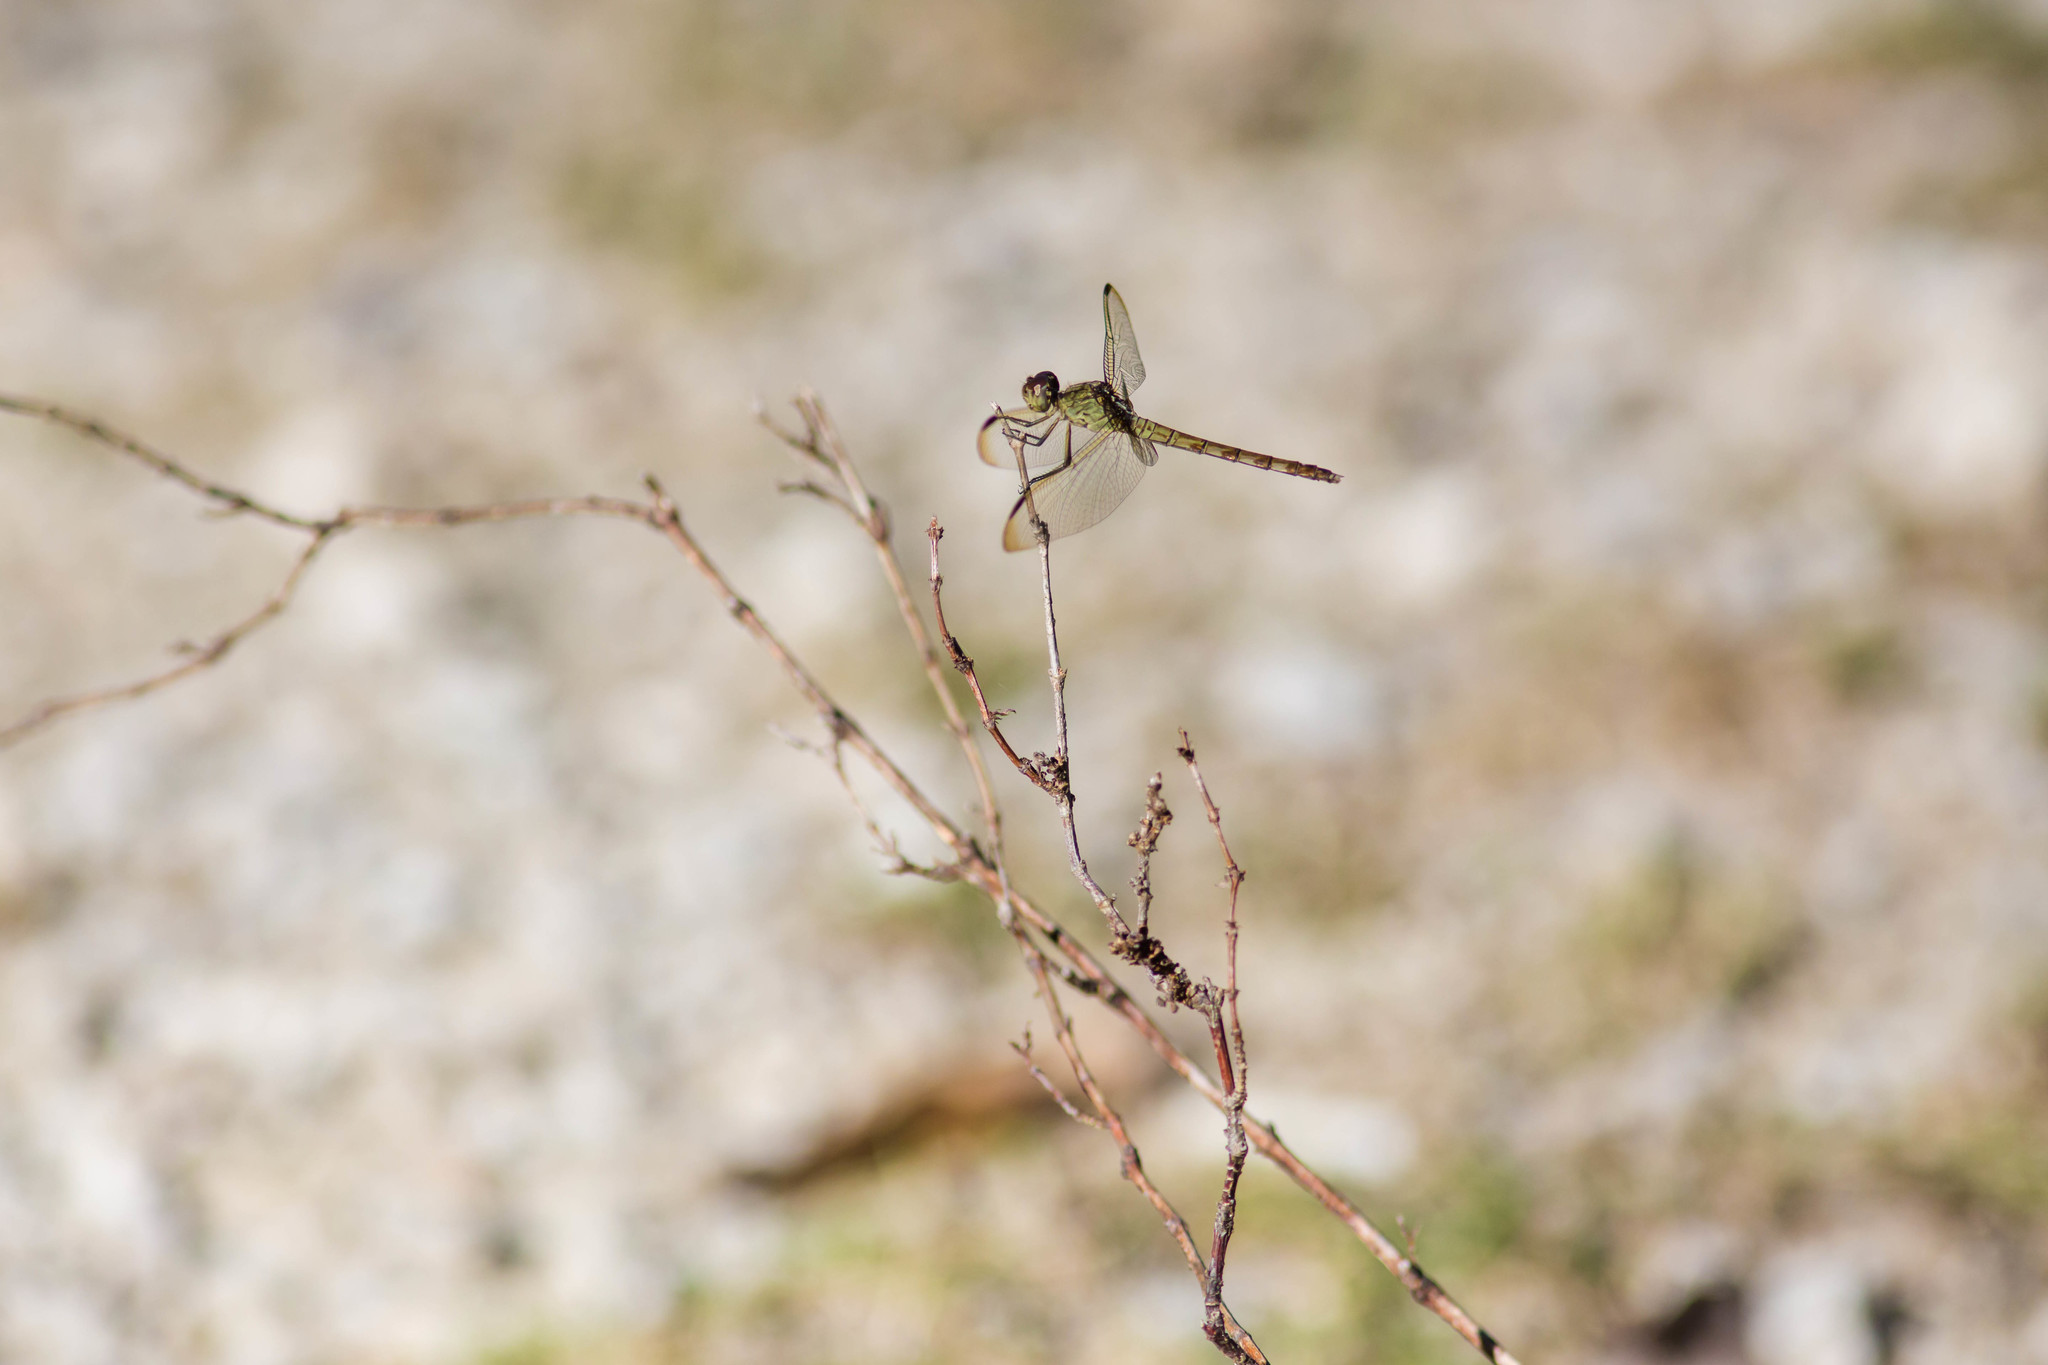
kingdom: Animalia
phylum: Arthropoda
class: Insecta
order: Odonata
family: Libellulidae
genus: Erythrodiplax
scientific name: Erythrodiplax umbrata
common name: Band-winged dragonlet
